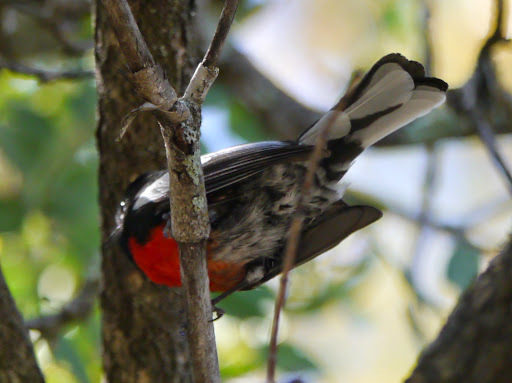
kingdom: Animalia
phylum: Chordata
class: Aves
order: Passeriformes
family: Parulidae
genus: Myioborus
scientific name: Myioborus pictus
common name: Painted whitestart
